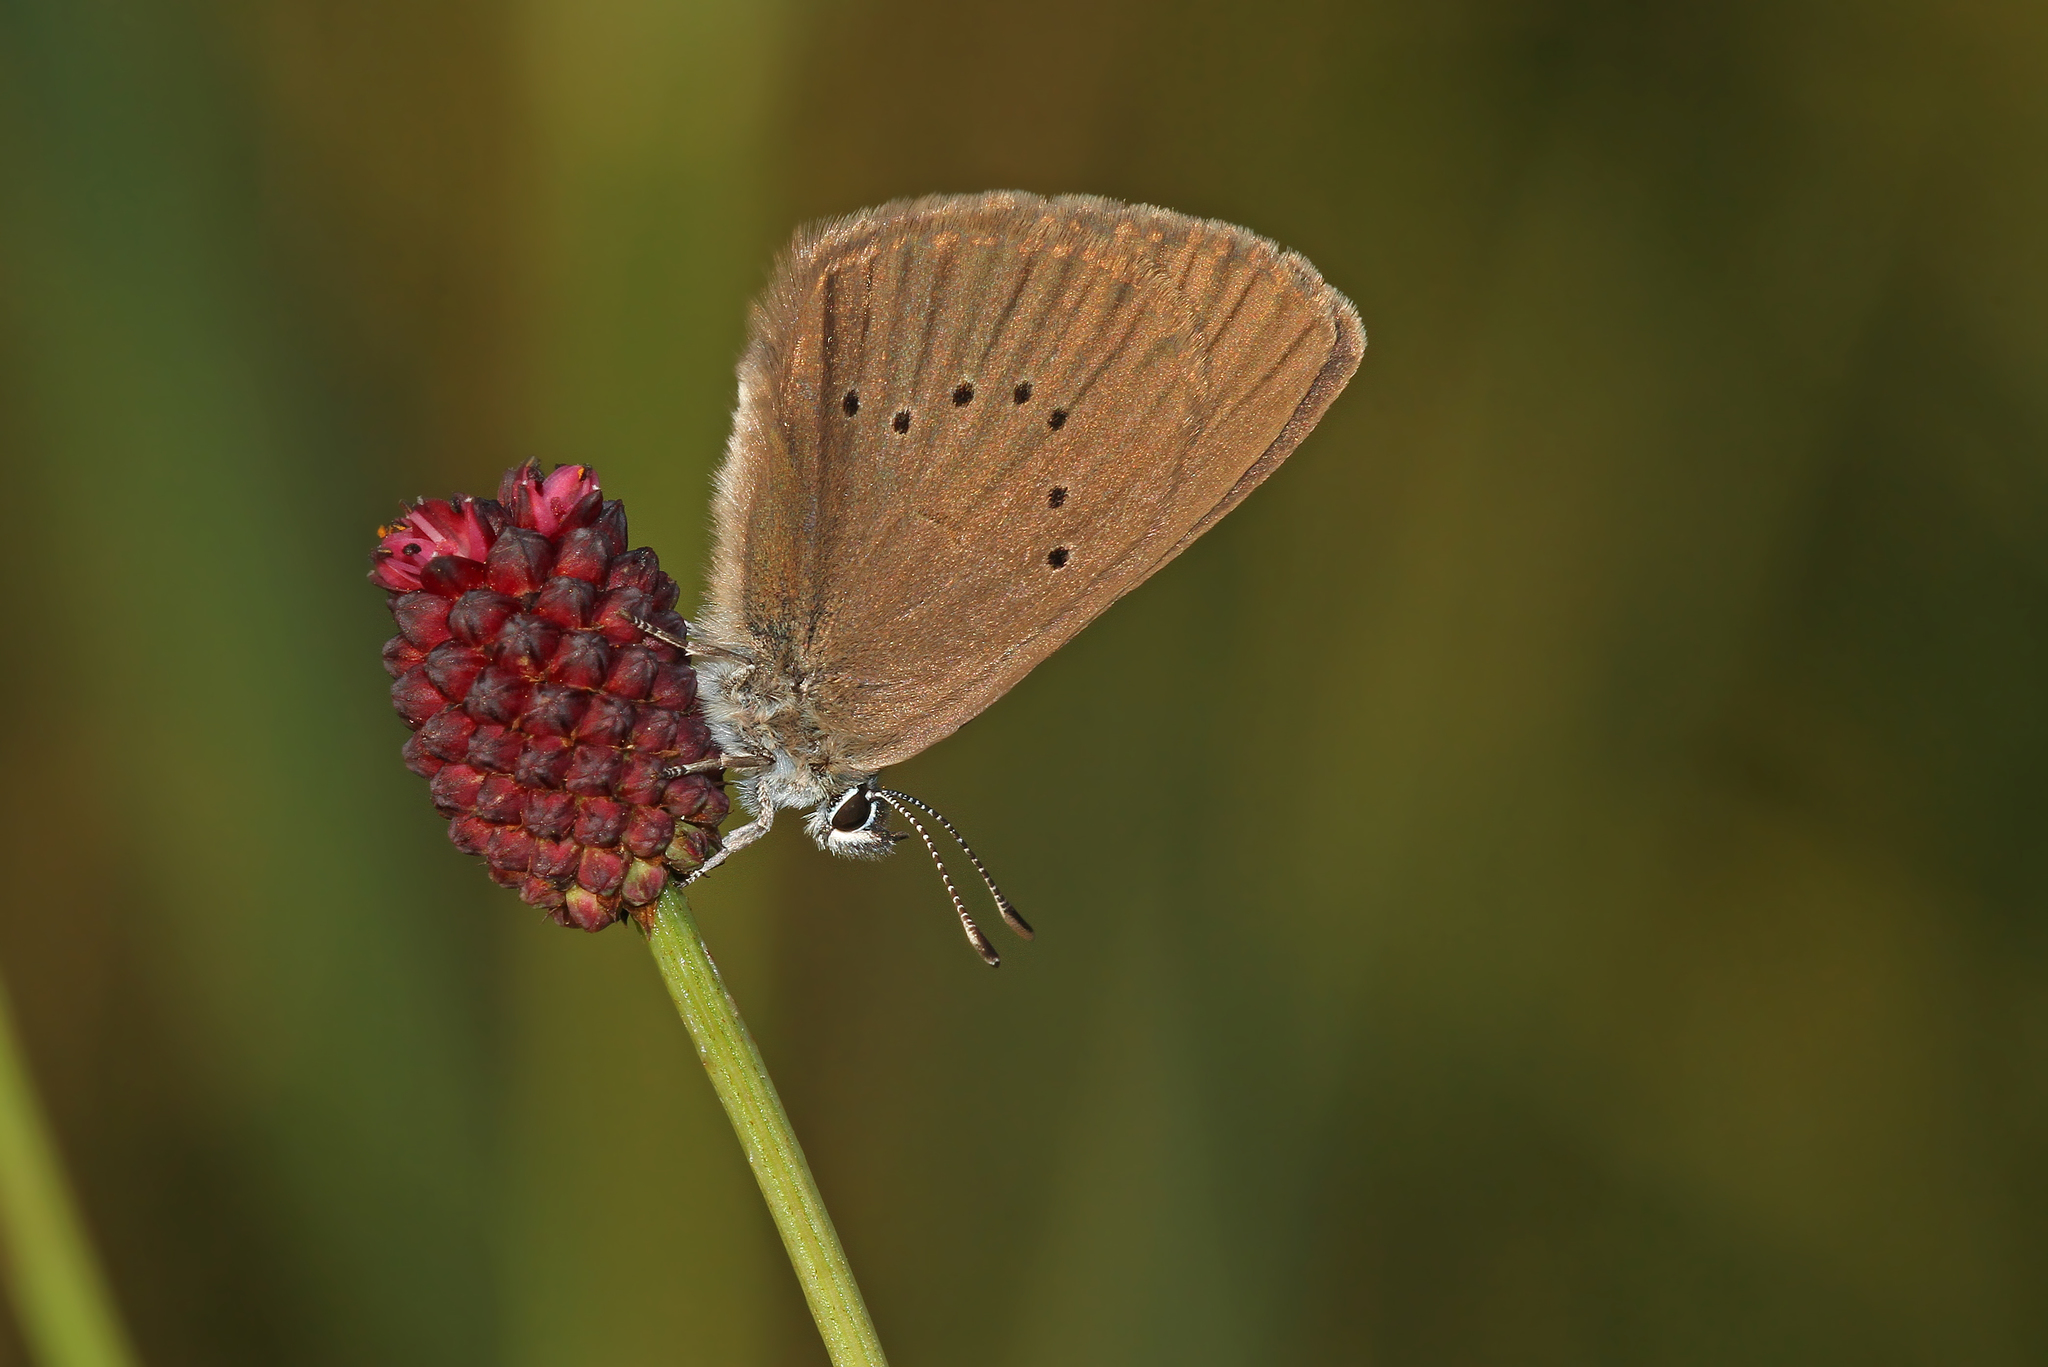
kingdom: Animalia
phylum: Arthropoda
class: Insecta
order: Lepidoptera
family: Lycaenidae
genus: Maculinea
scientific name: Maculinea nausithous
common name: Dusky large blue
